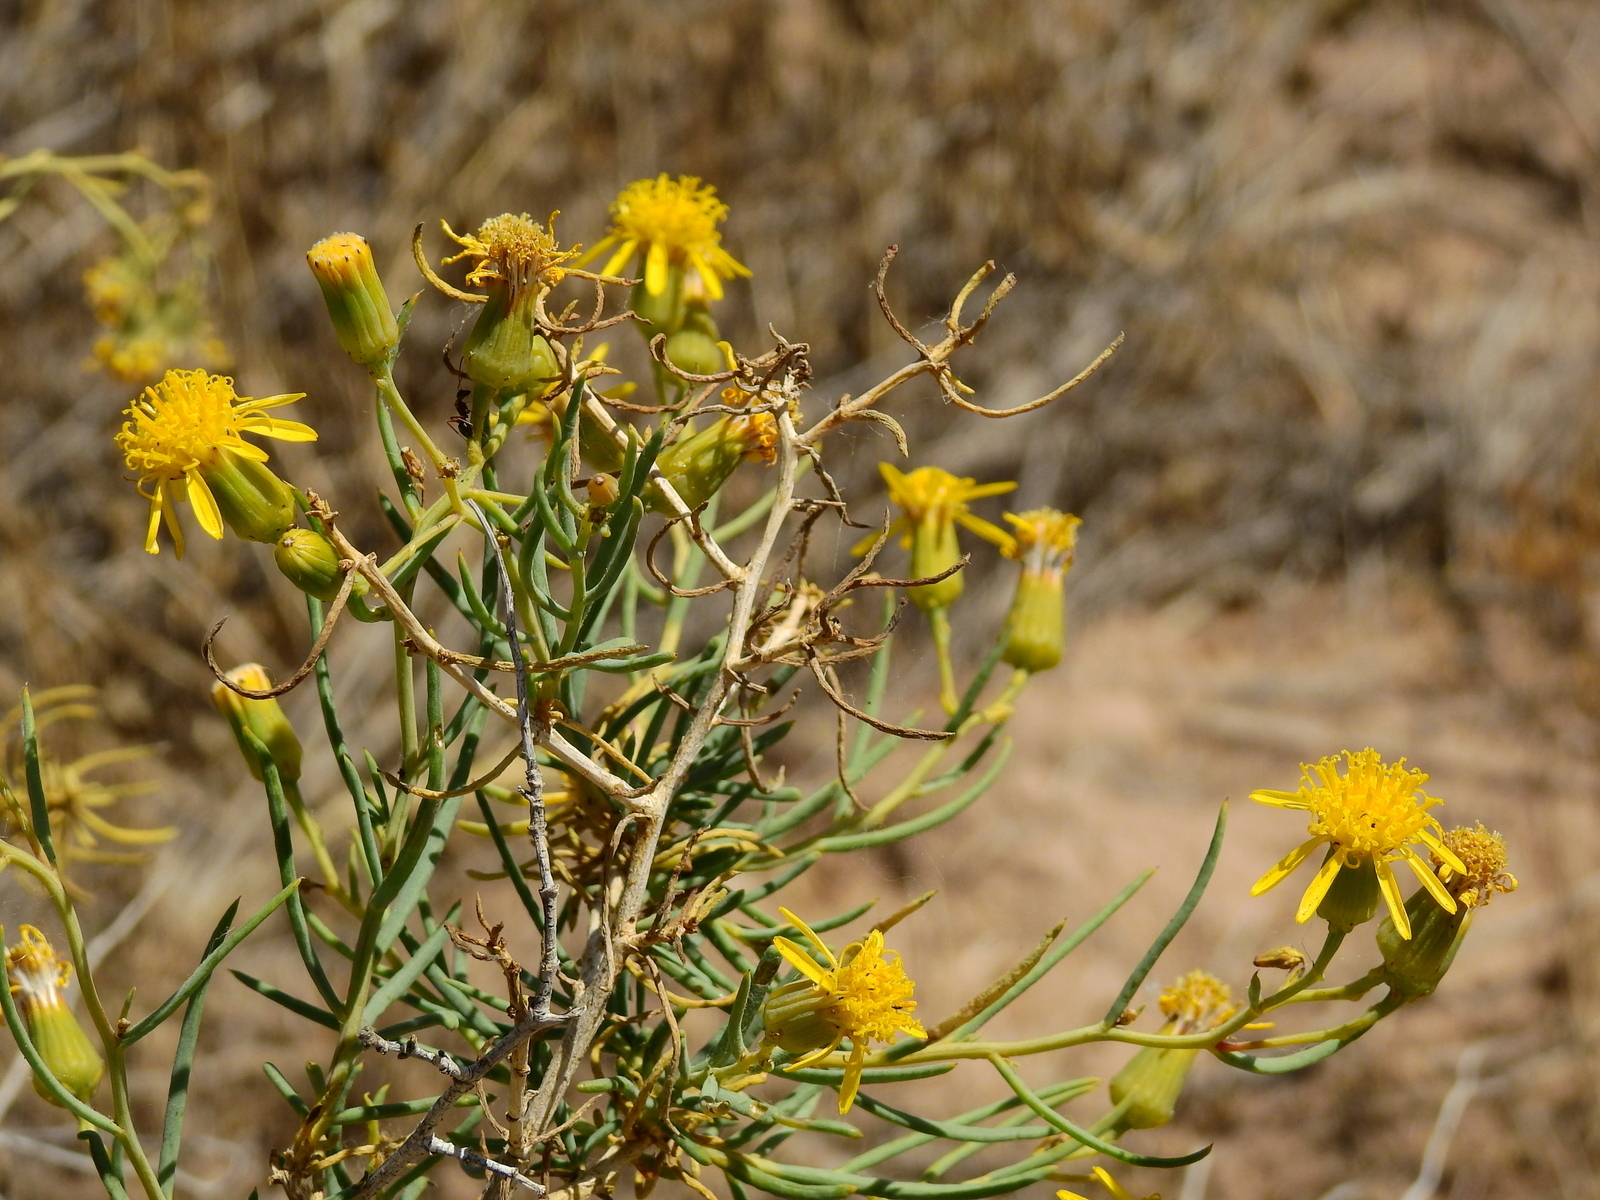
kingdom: Plantae
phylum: Tracheophyta
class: Magnoliopsida
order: Asterales
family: Asteraceae
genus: Senecio
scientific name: Senecio subulatus
